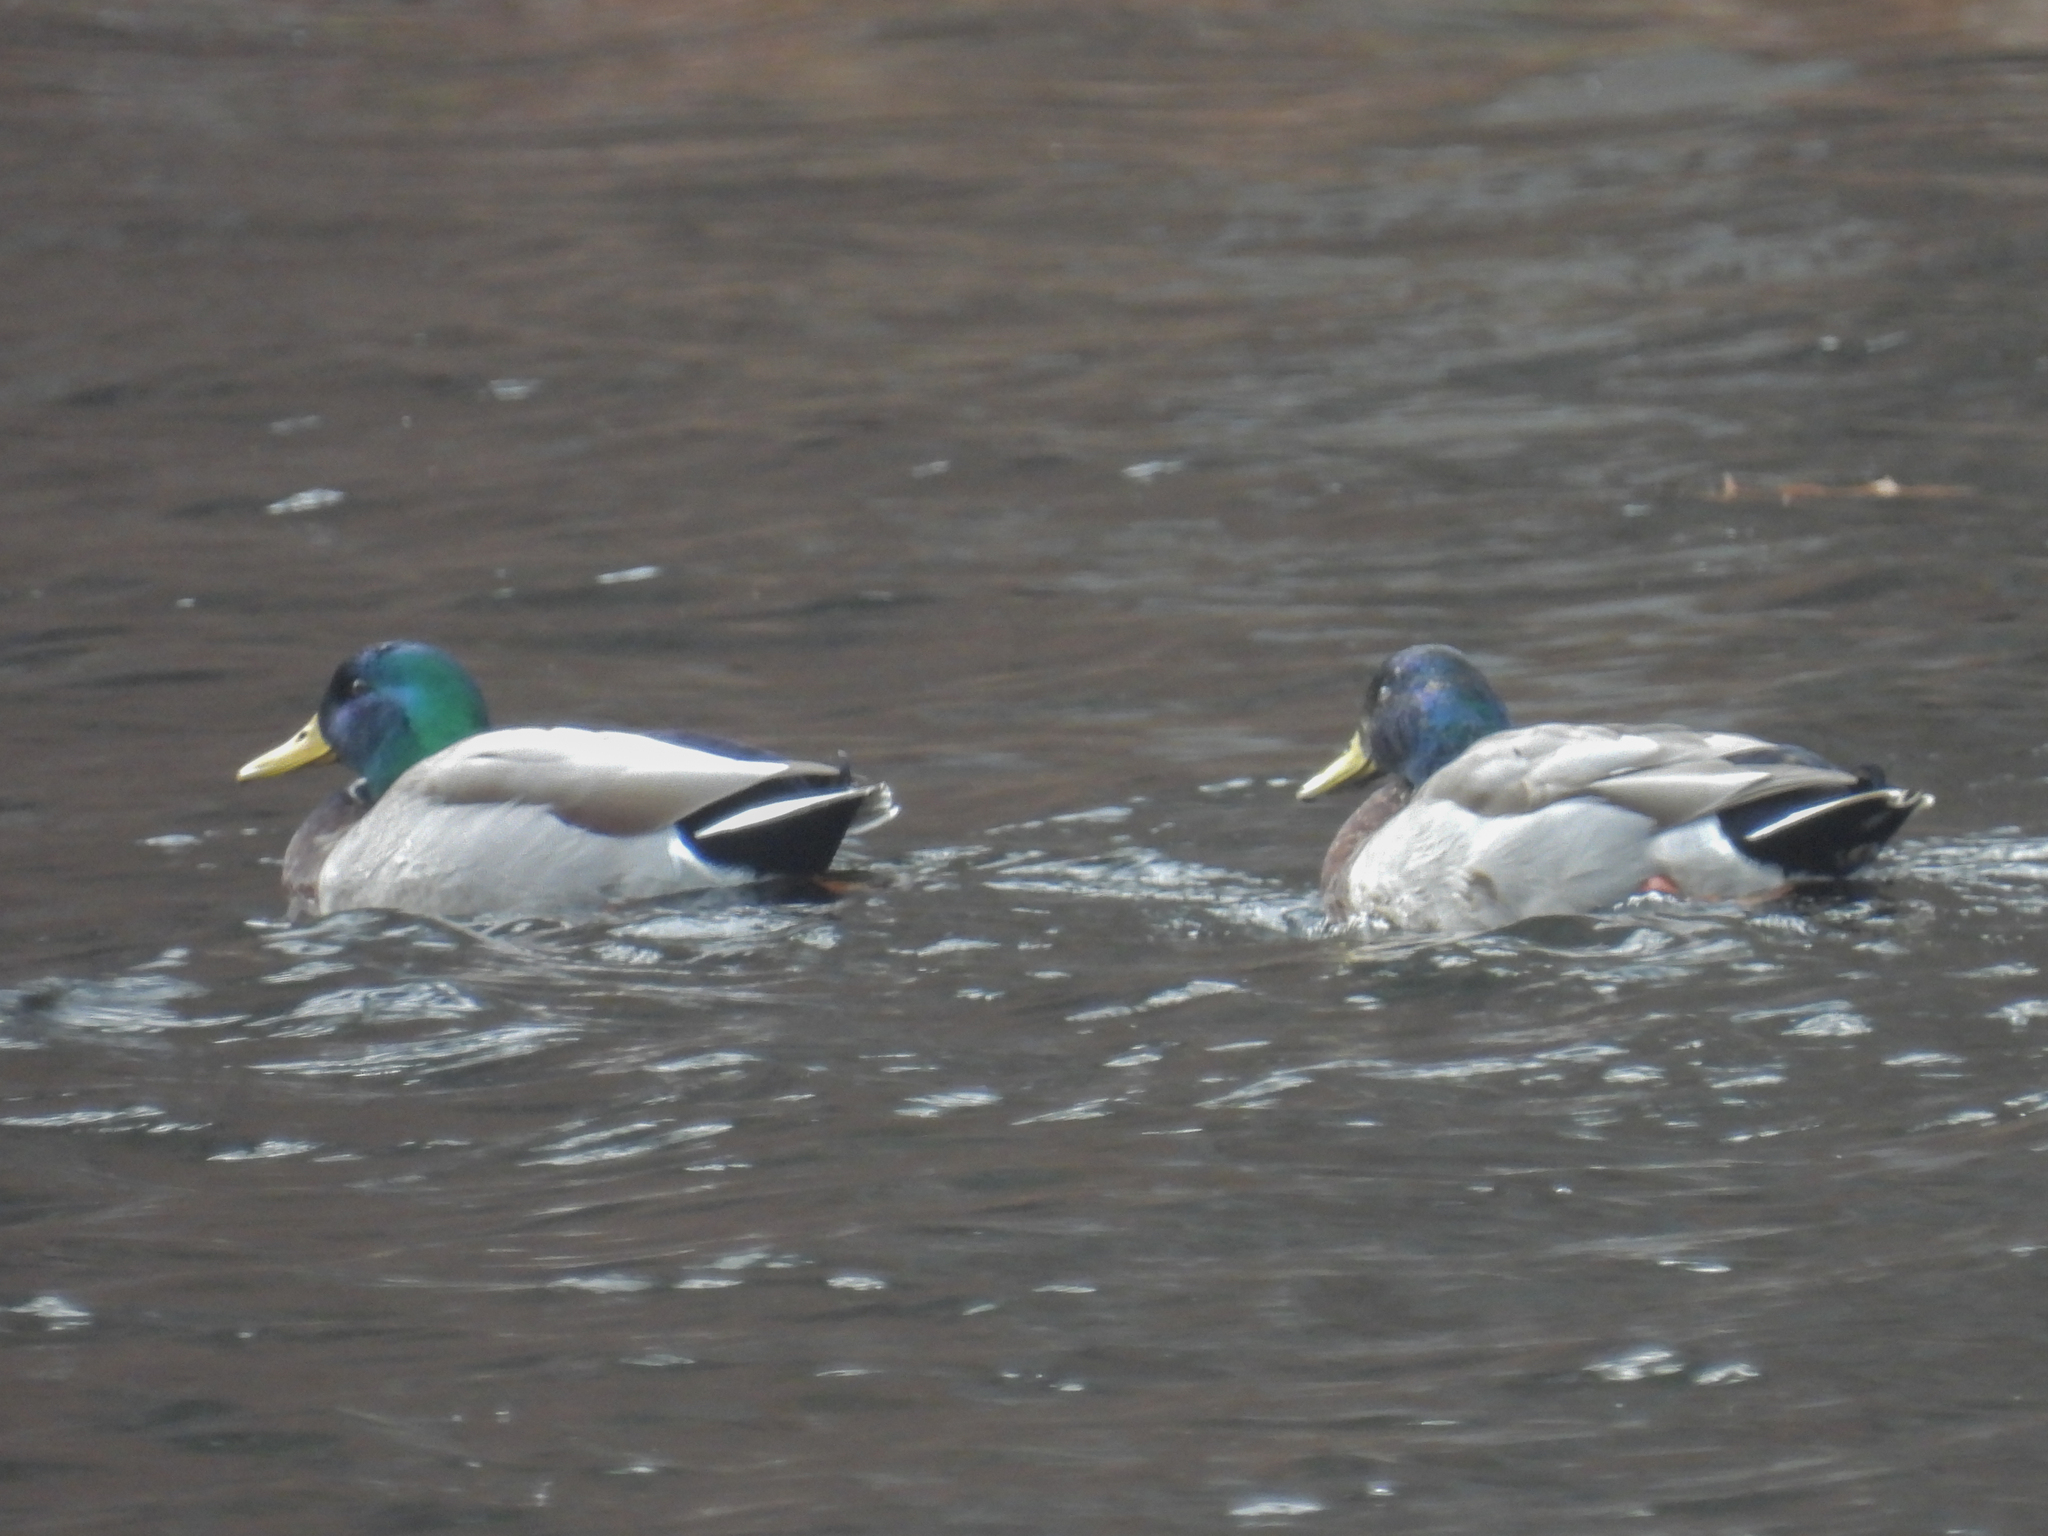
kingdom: Animalia
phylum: Chordata
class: Aves
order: Anseriformes
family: Anatidae
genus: Anas
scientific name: Anas platyrhynchos
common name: Mallard
